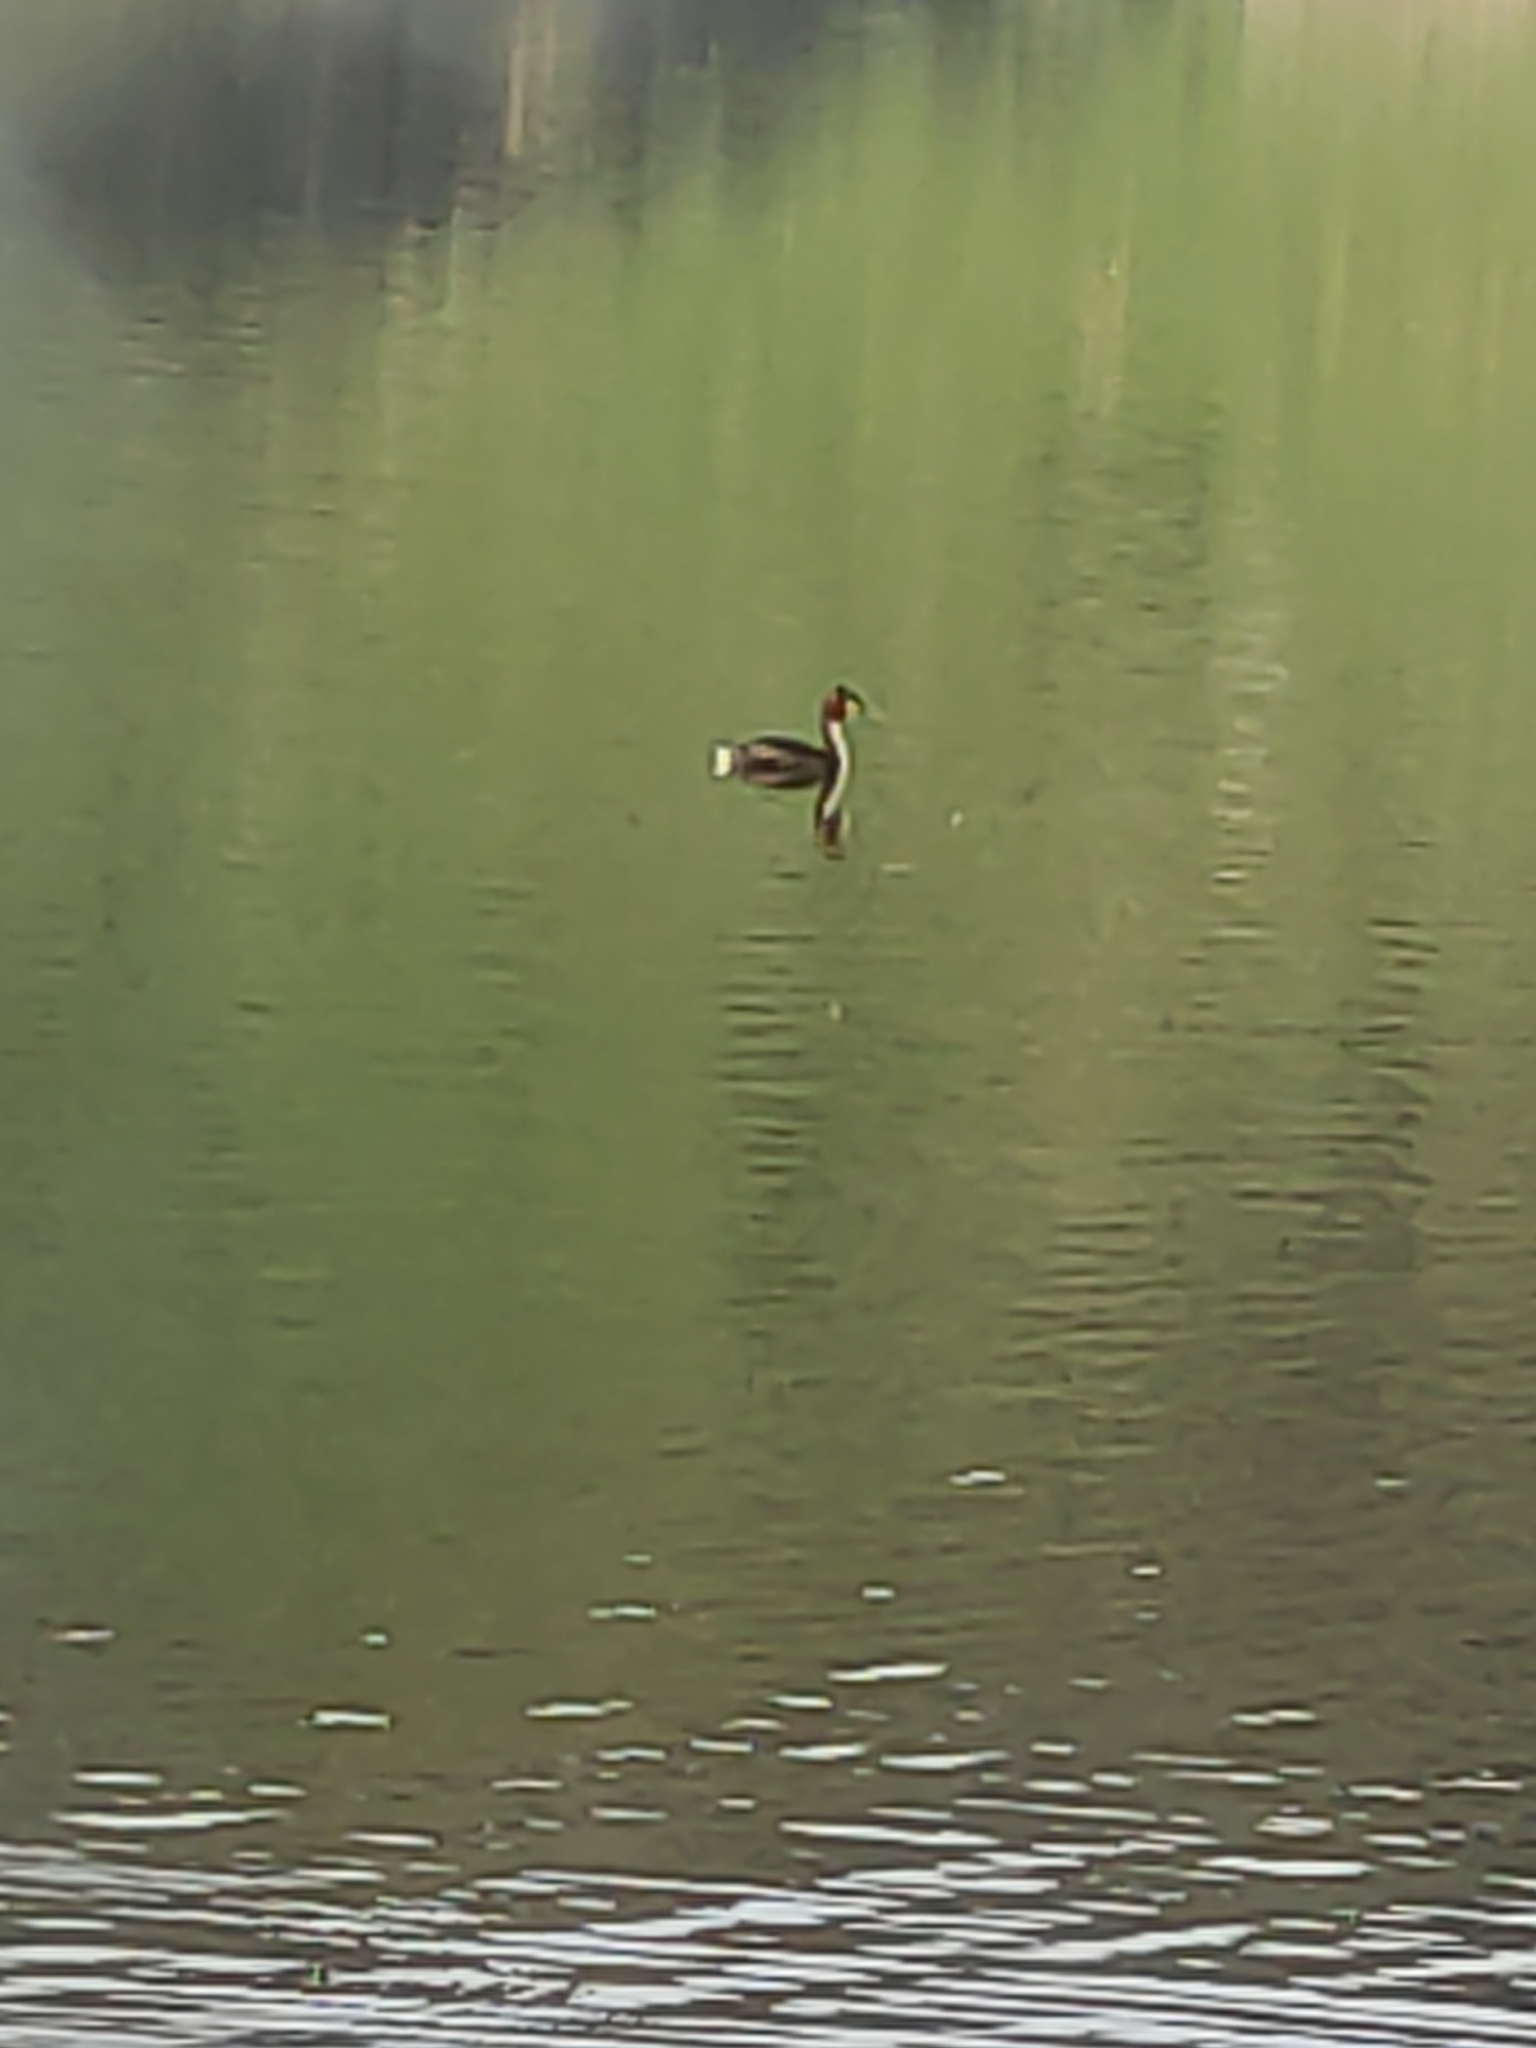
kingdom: Animalia
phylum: Chordata
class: Aves
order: Podicipediformes
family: Podicipedidae
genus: Podiceps
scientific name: Podiceps cristatus
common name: Great crested grebe
